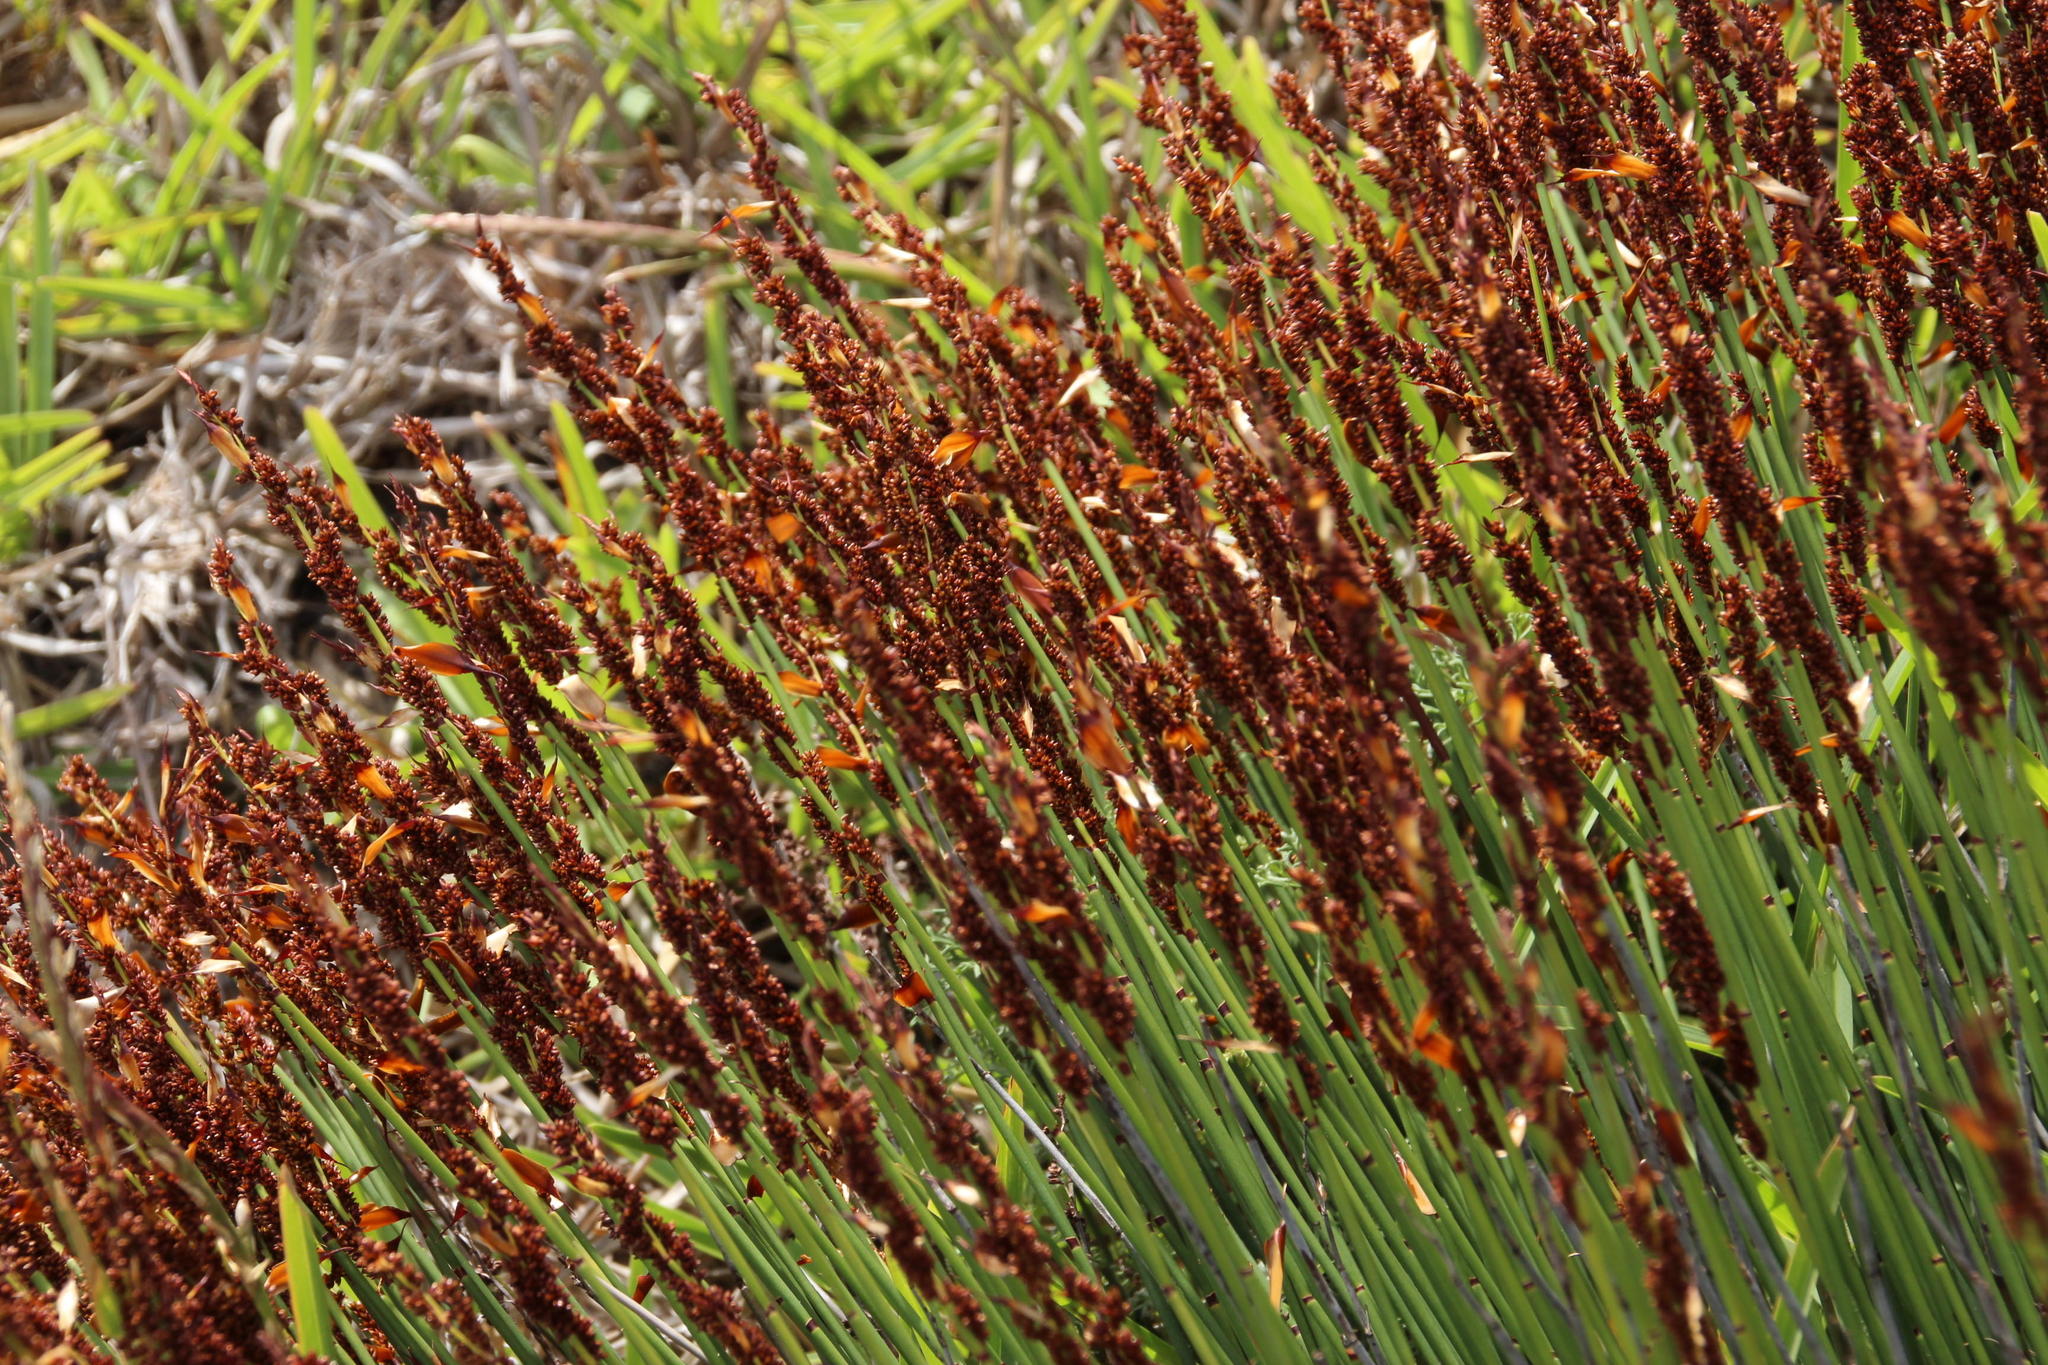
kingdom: Plantae
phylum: Tracheophyta
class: Liliopsida
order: Poales
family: Restionaceae
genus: Elegia
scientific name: Elegia nuda
